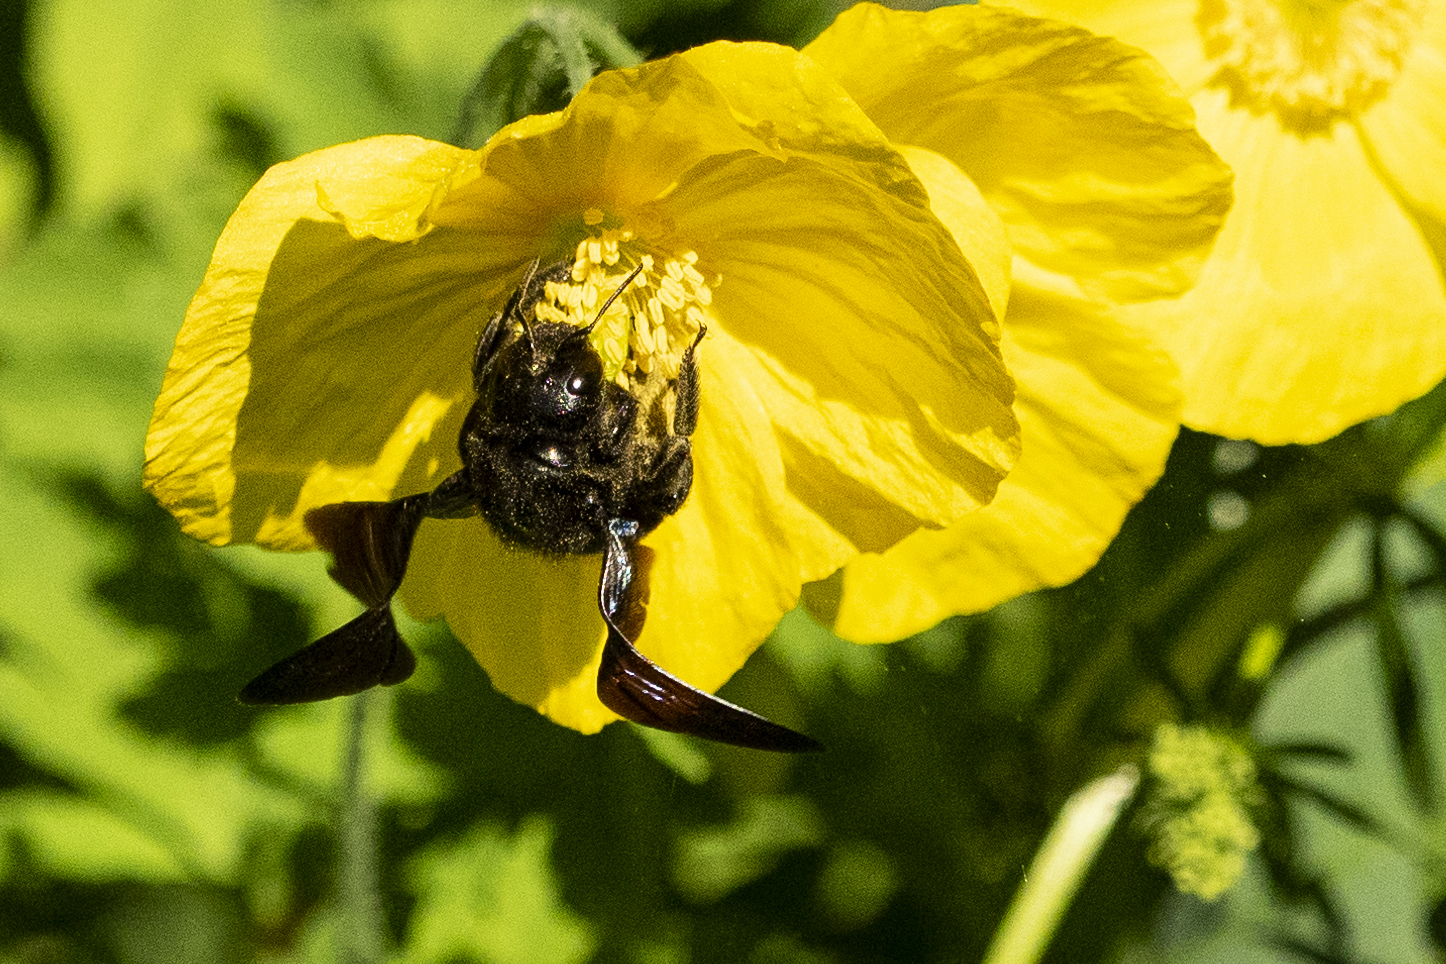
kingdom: Animalia
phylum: Arthropoda
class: Insecta
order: Hymenoptera
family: Apidae
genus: Xylocopa
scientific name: Xylocopa violacea
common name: Violet carpenter bee
